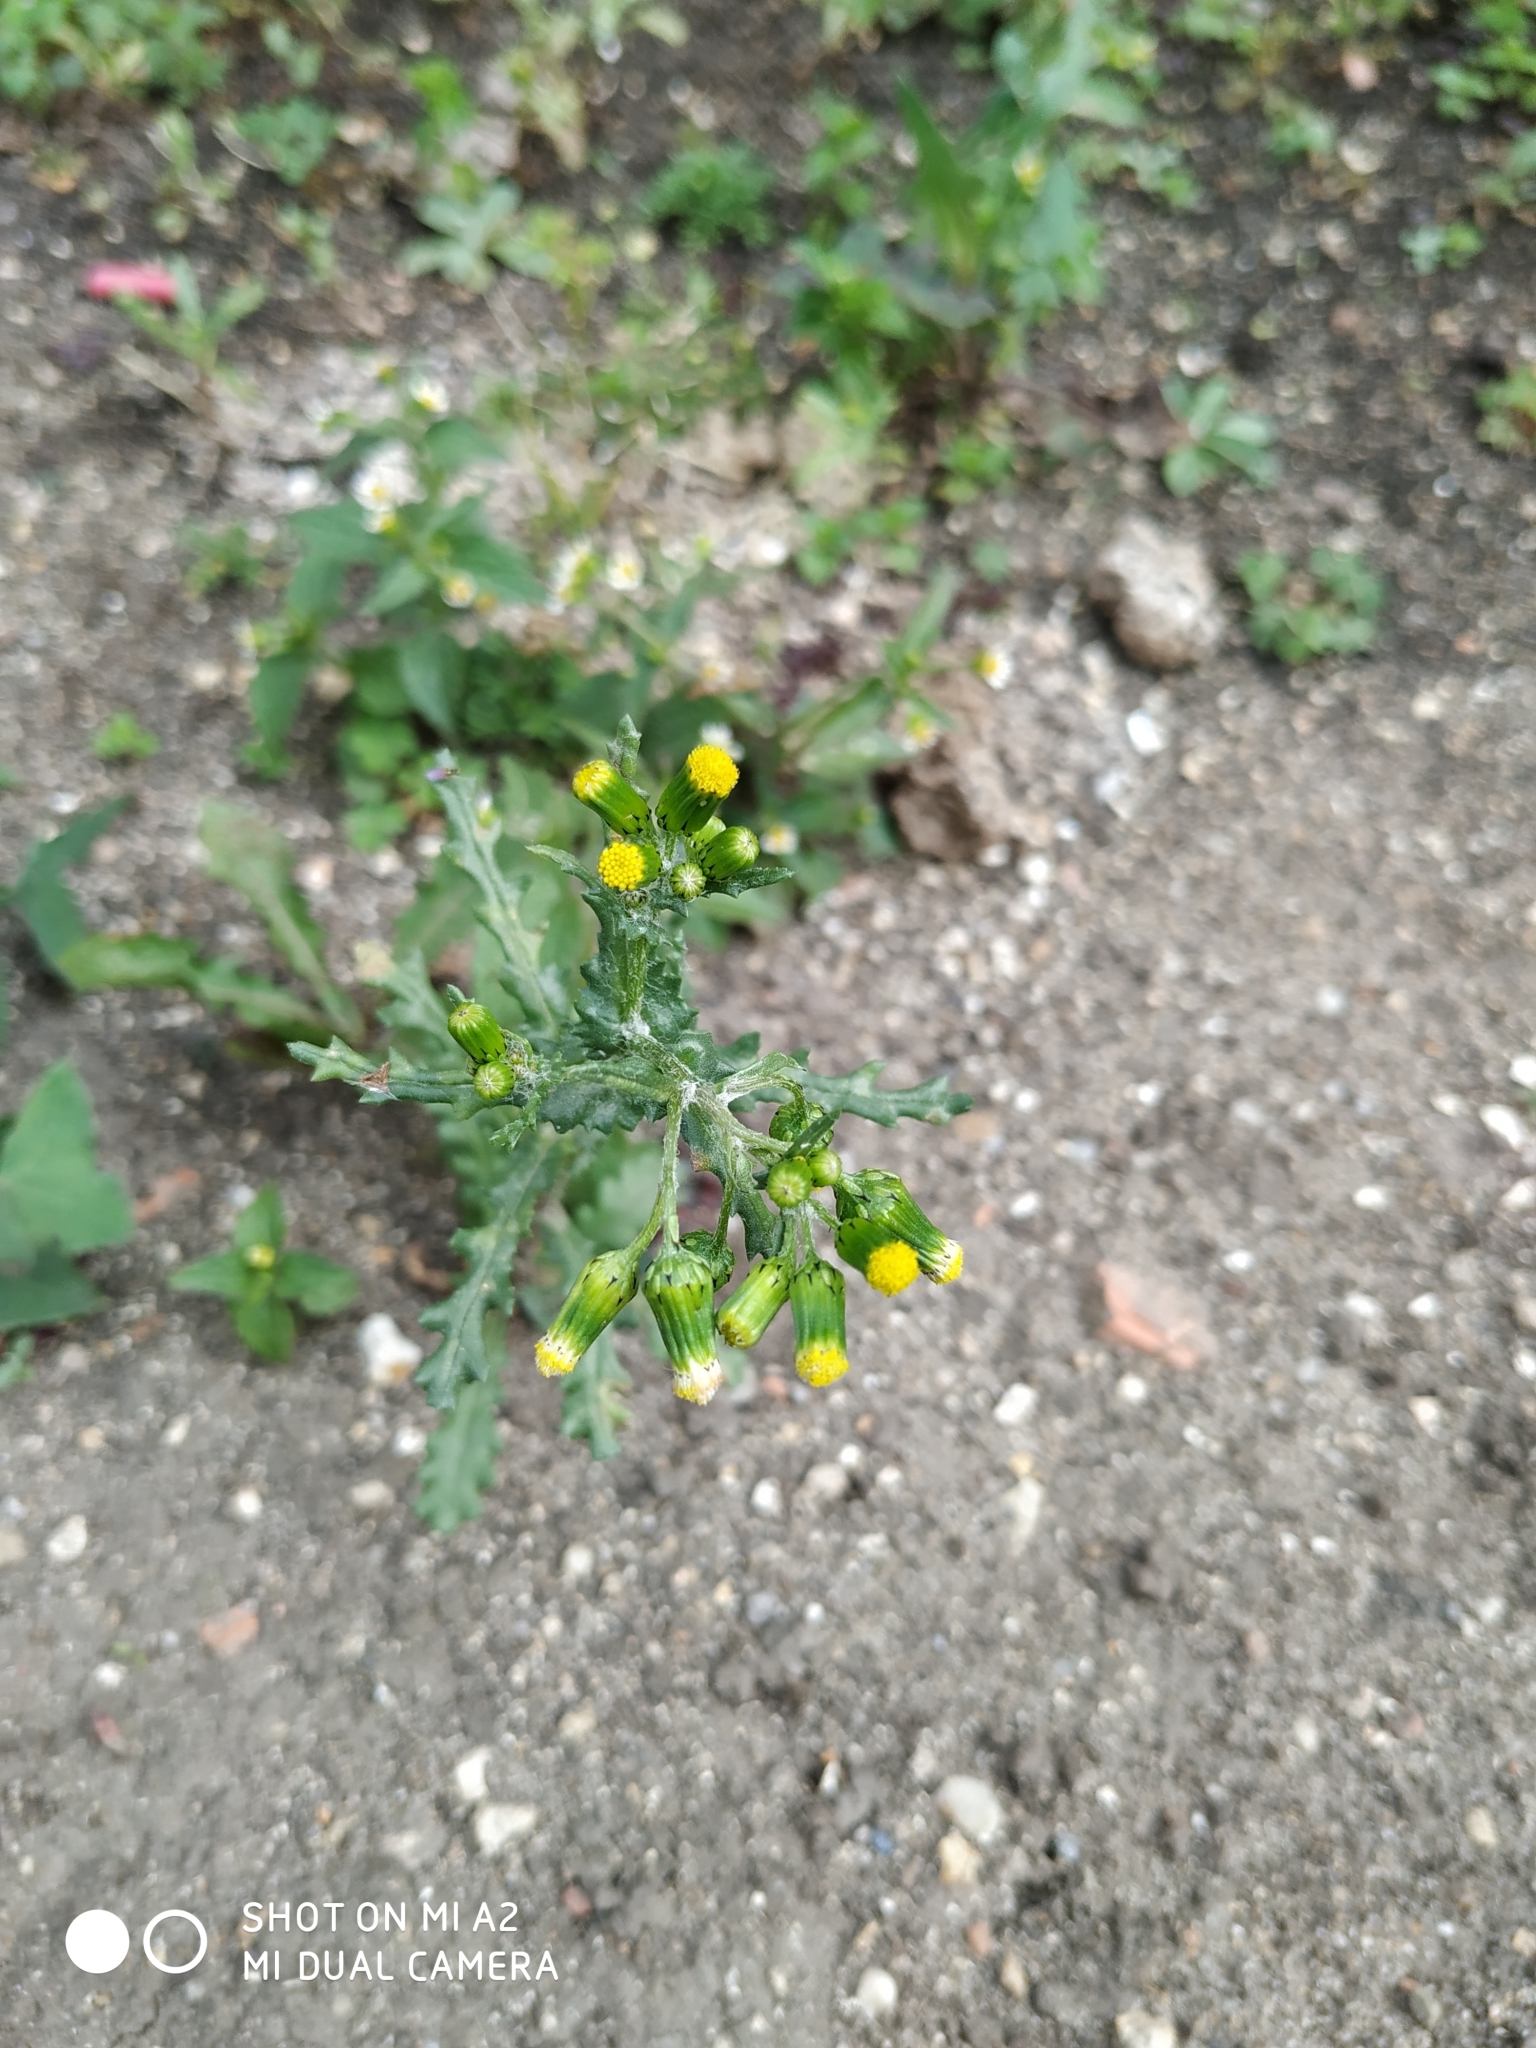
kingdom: Plantae
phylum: Tracheophyta
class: Magnoliopsida
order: Asterales
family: Asteraceae
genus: Senecio
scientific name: Senecio vulgaris
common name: Old-man-in-the-spring
